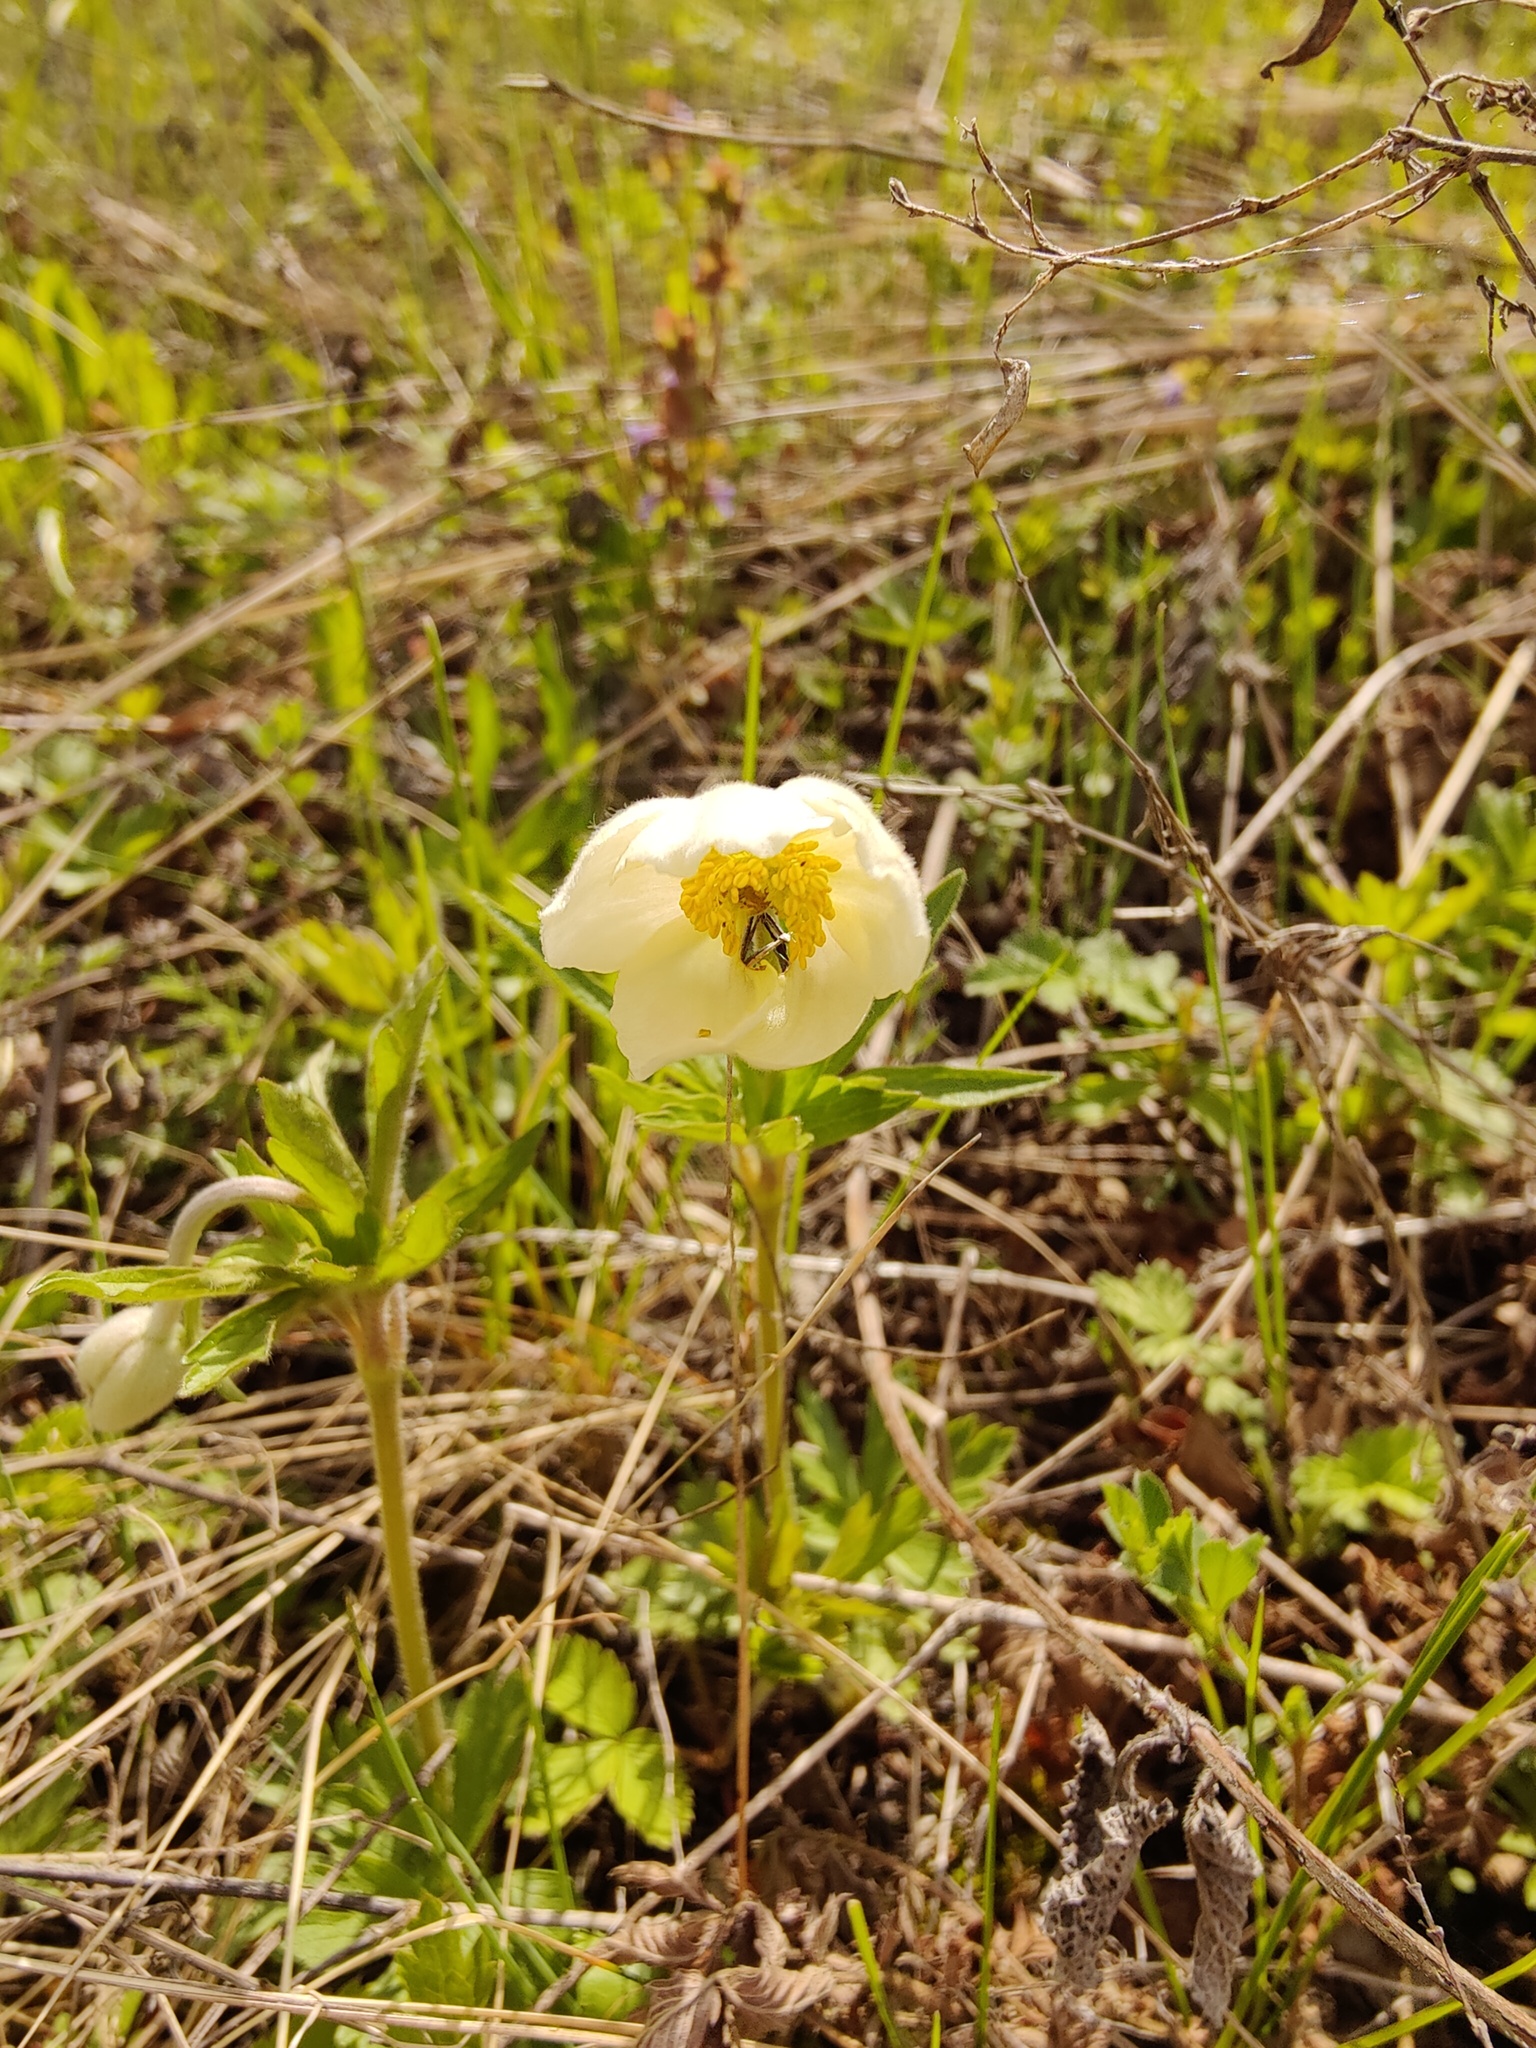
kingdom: Plantae
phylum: Tracheophyta
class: Magnoliopsida
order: Ranunculales
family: Ranunculaceae
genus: Anemone
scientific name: Anemone sylvestris
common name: Snowdrop anemone
